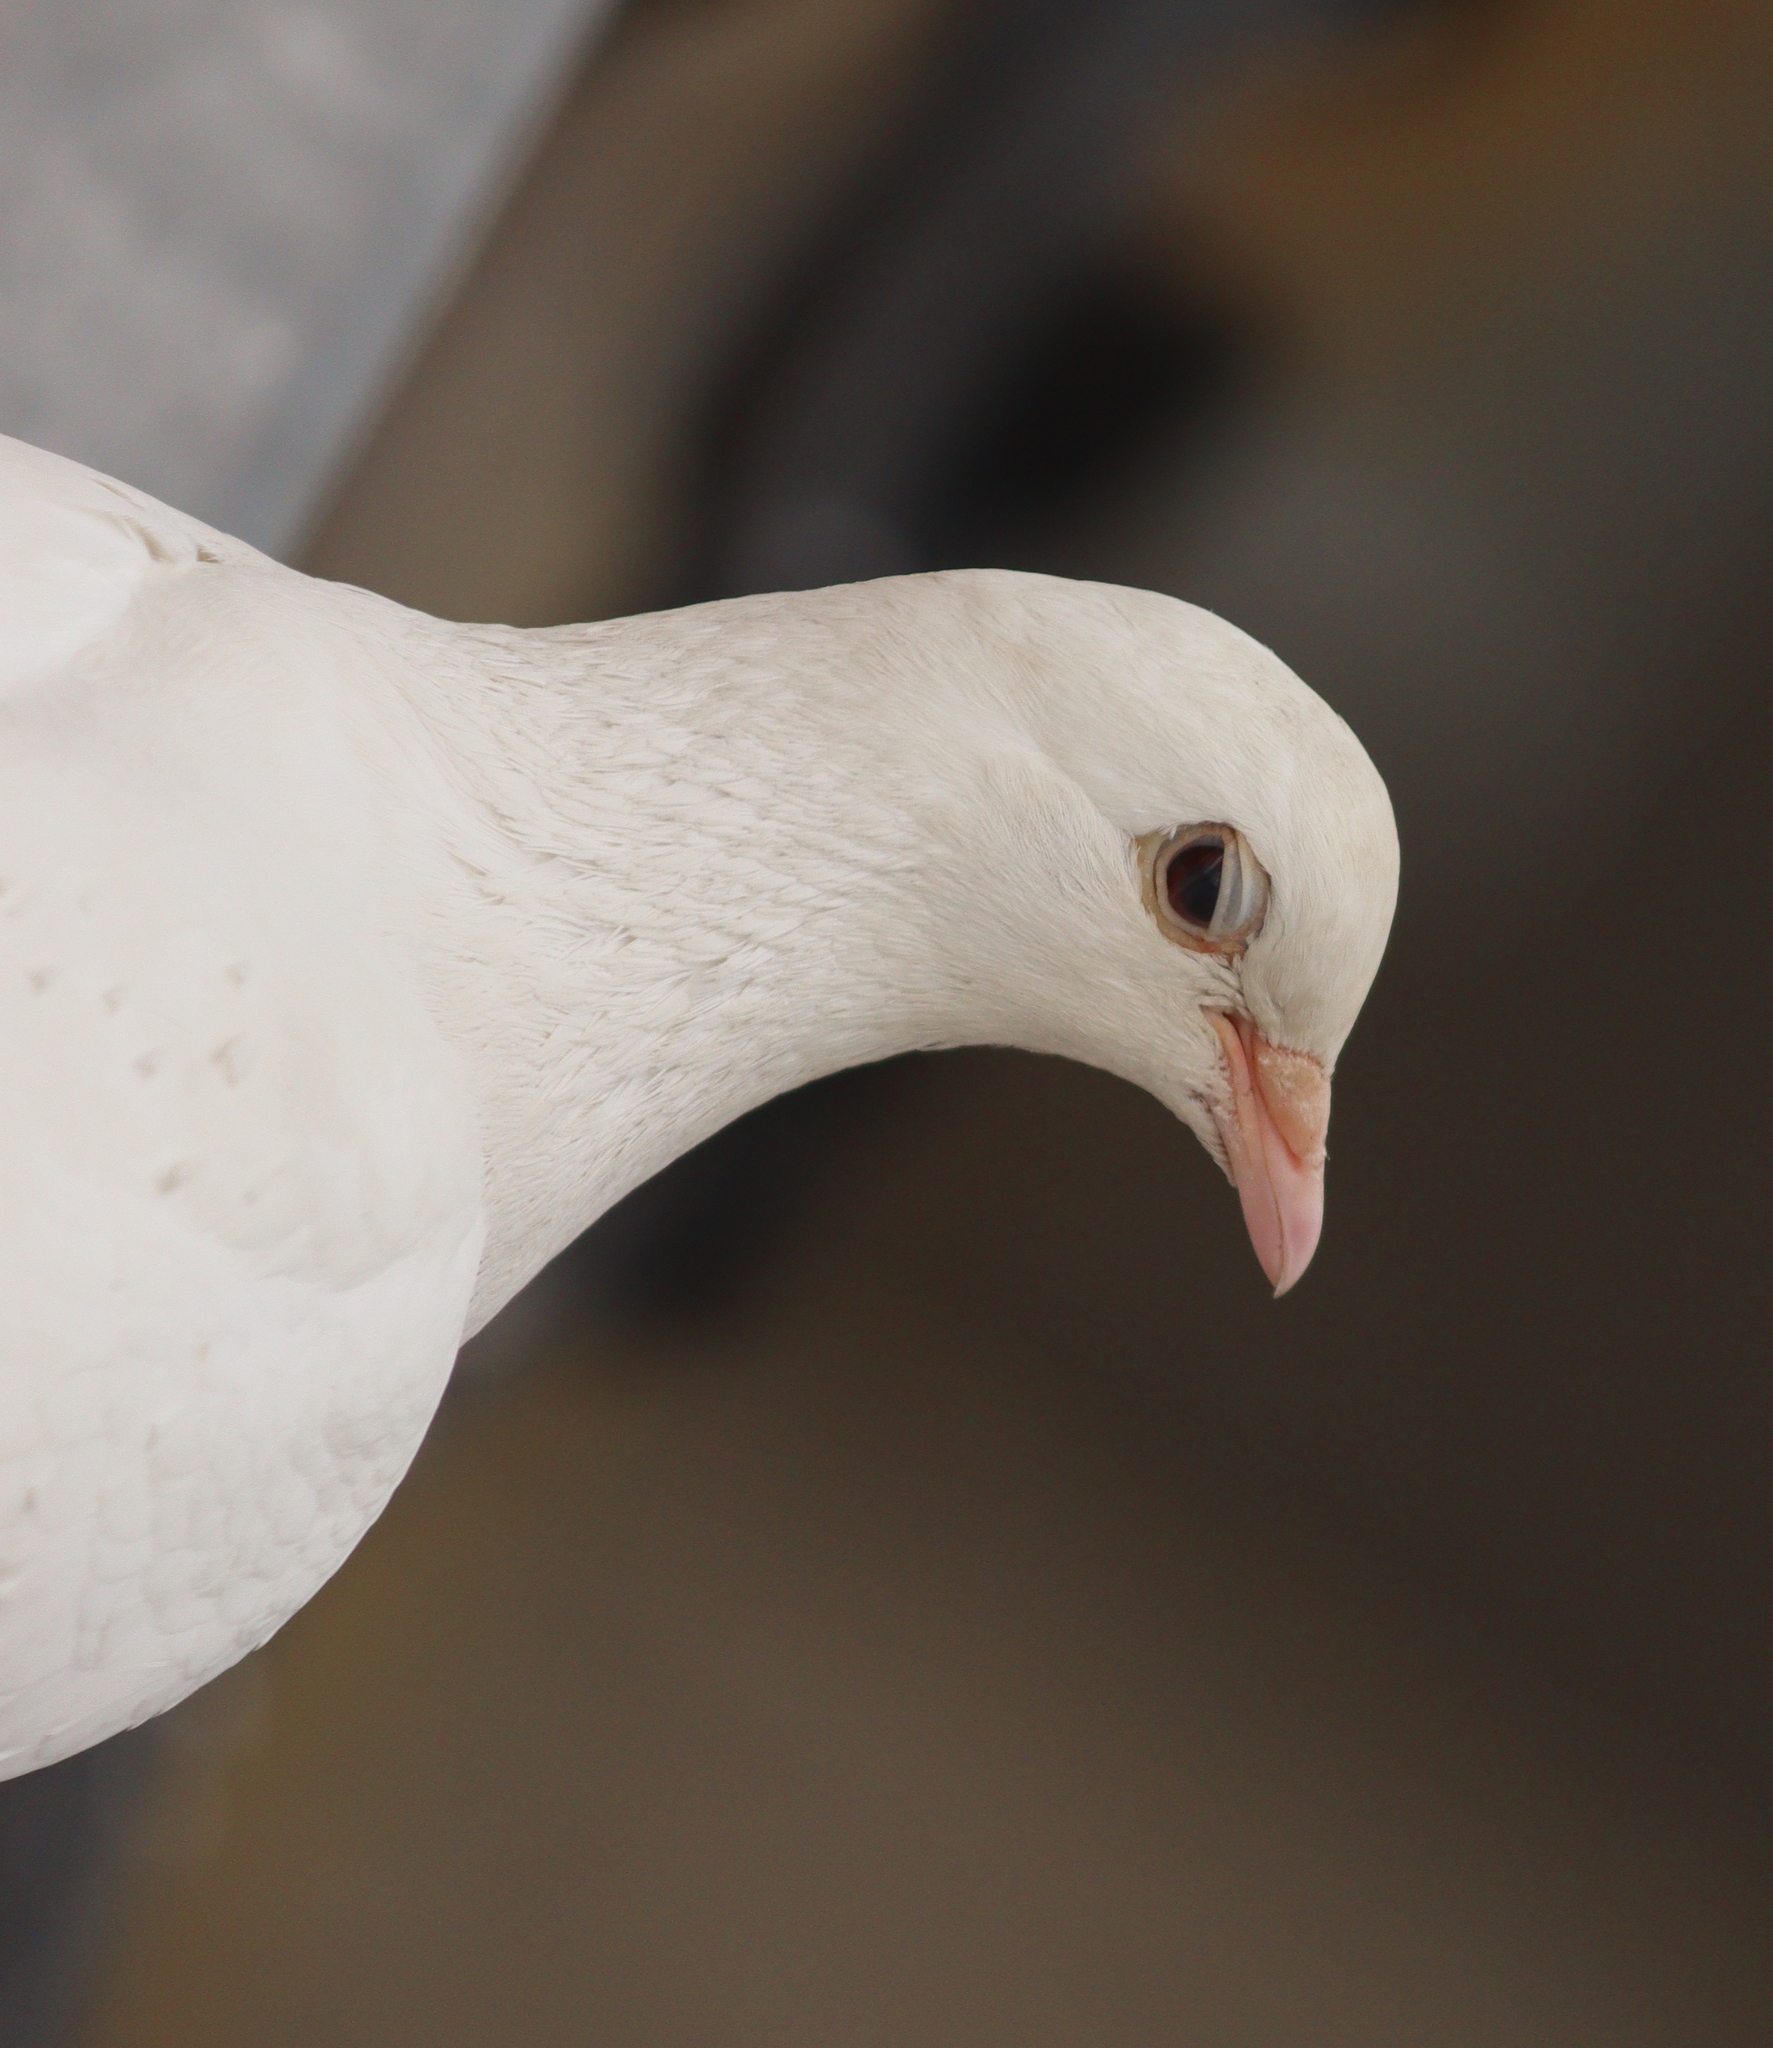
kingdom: Animalia
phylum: Chordata
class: Aves
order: Columbiformes
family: Columbidae
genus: Columba
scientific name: Columba livia
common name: Rock pigeon
